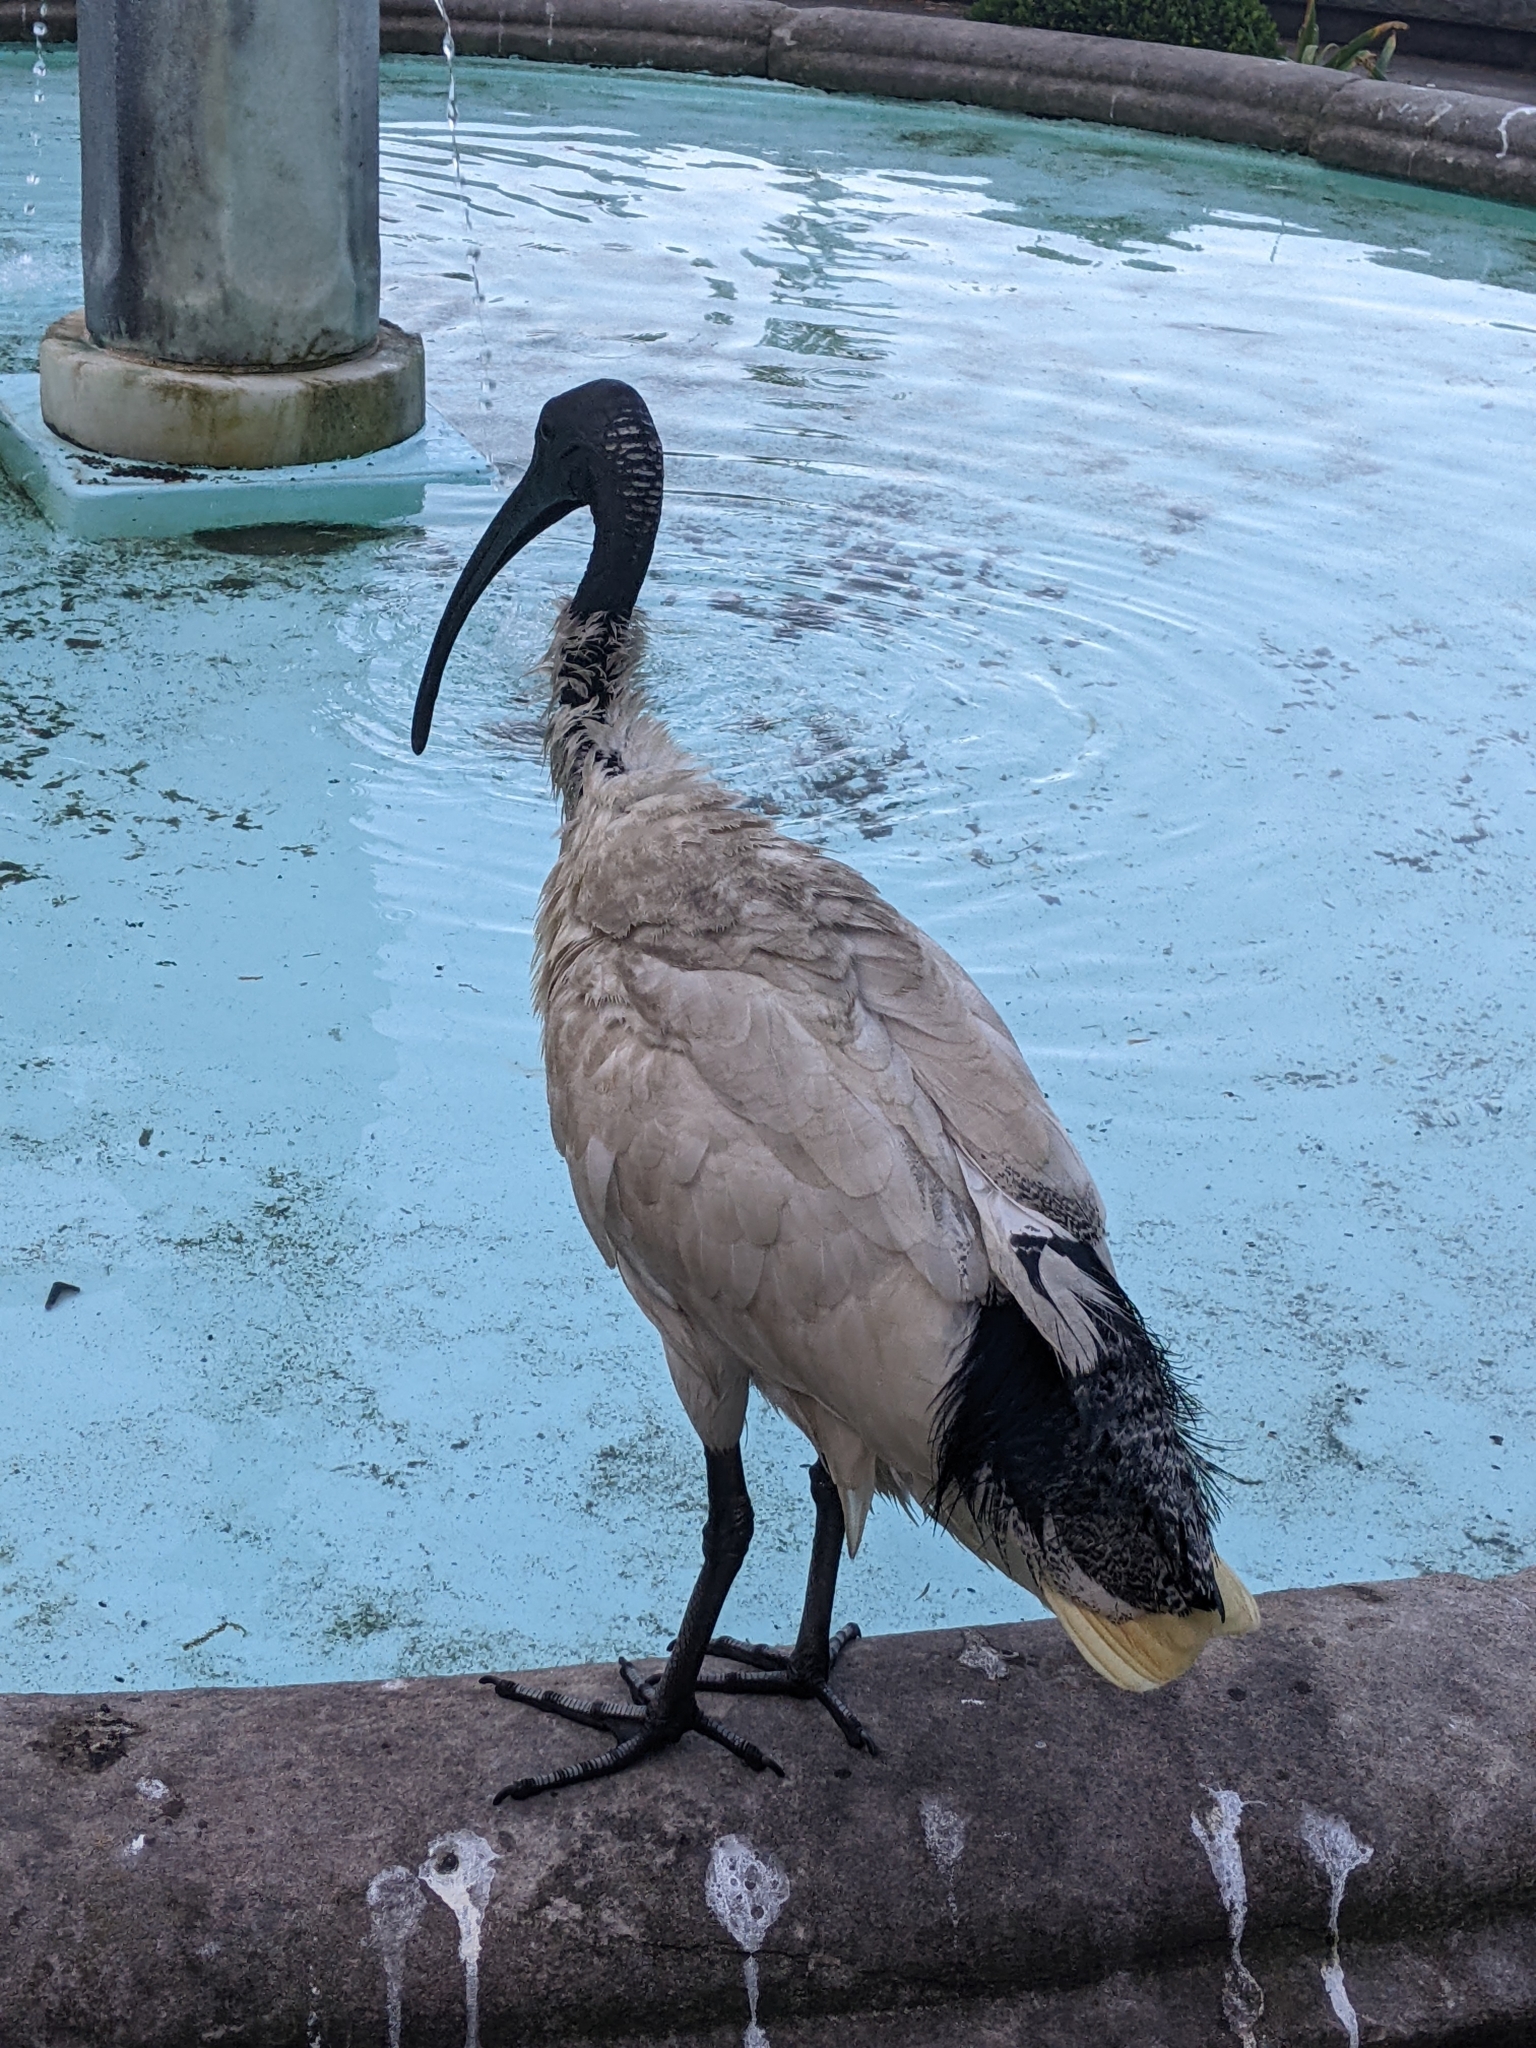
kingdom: Animalia
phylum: Chordata
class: Aves
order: Pelecaniformes
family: Threskiornithidae
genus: Threskiornis
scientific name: Threskiornis molucca
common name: Australian white ibis
